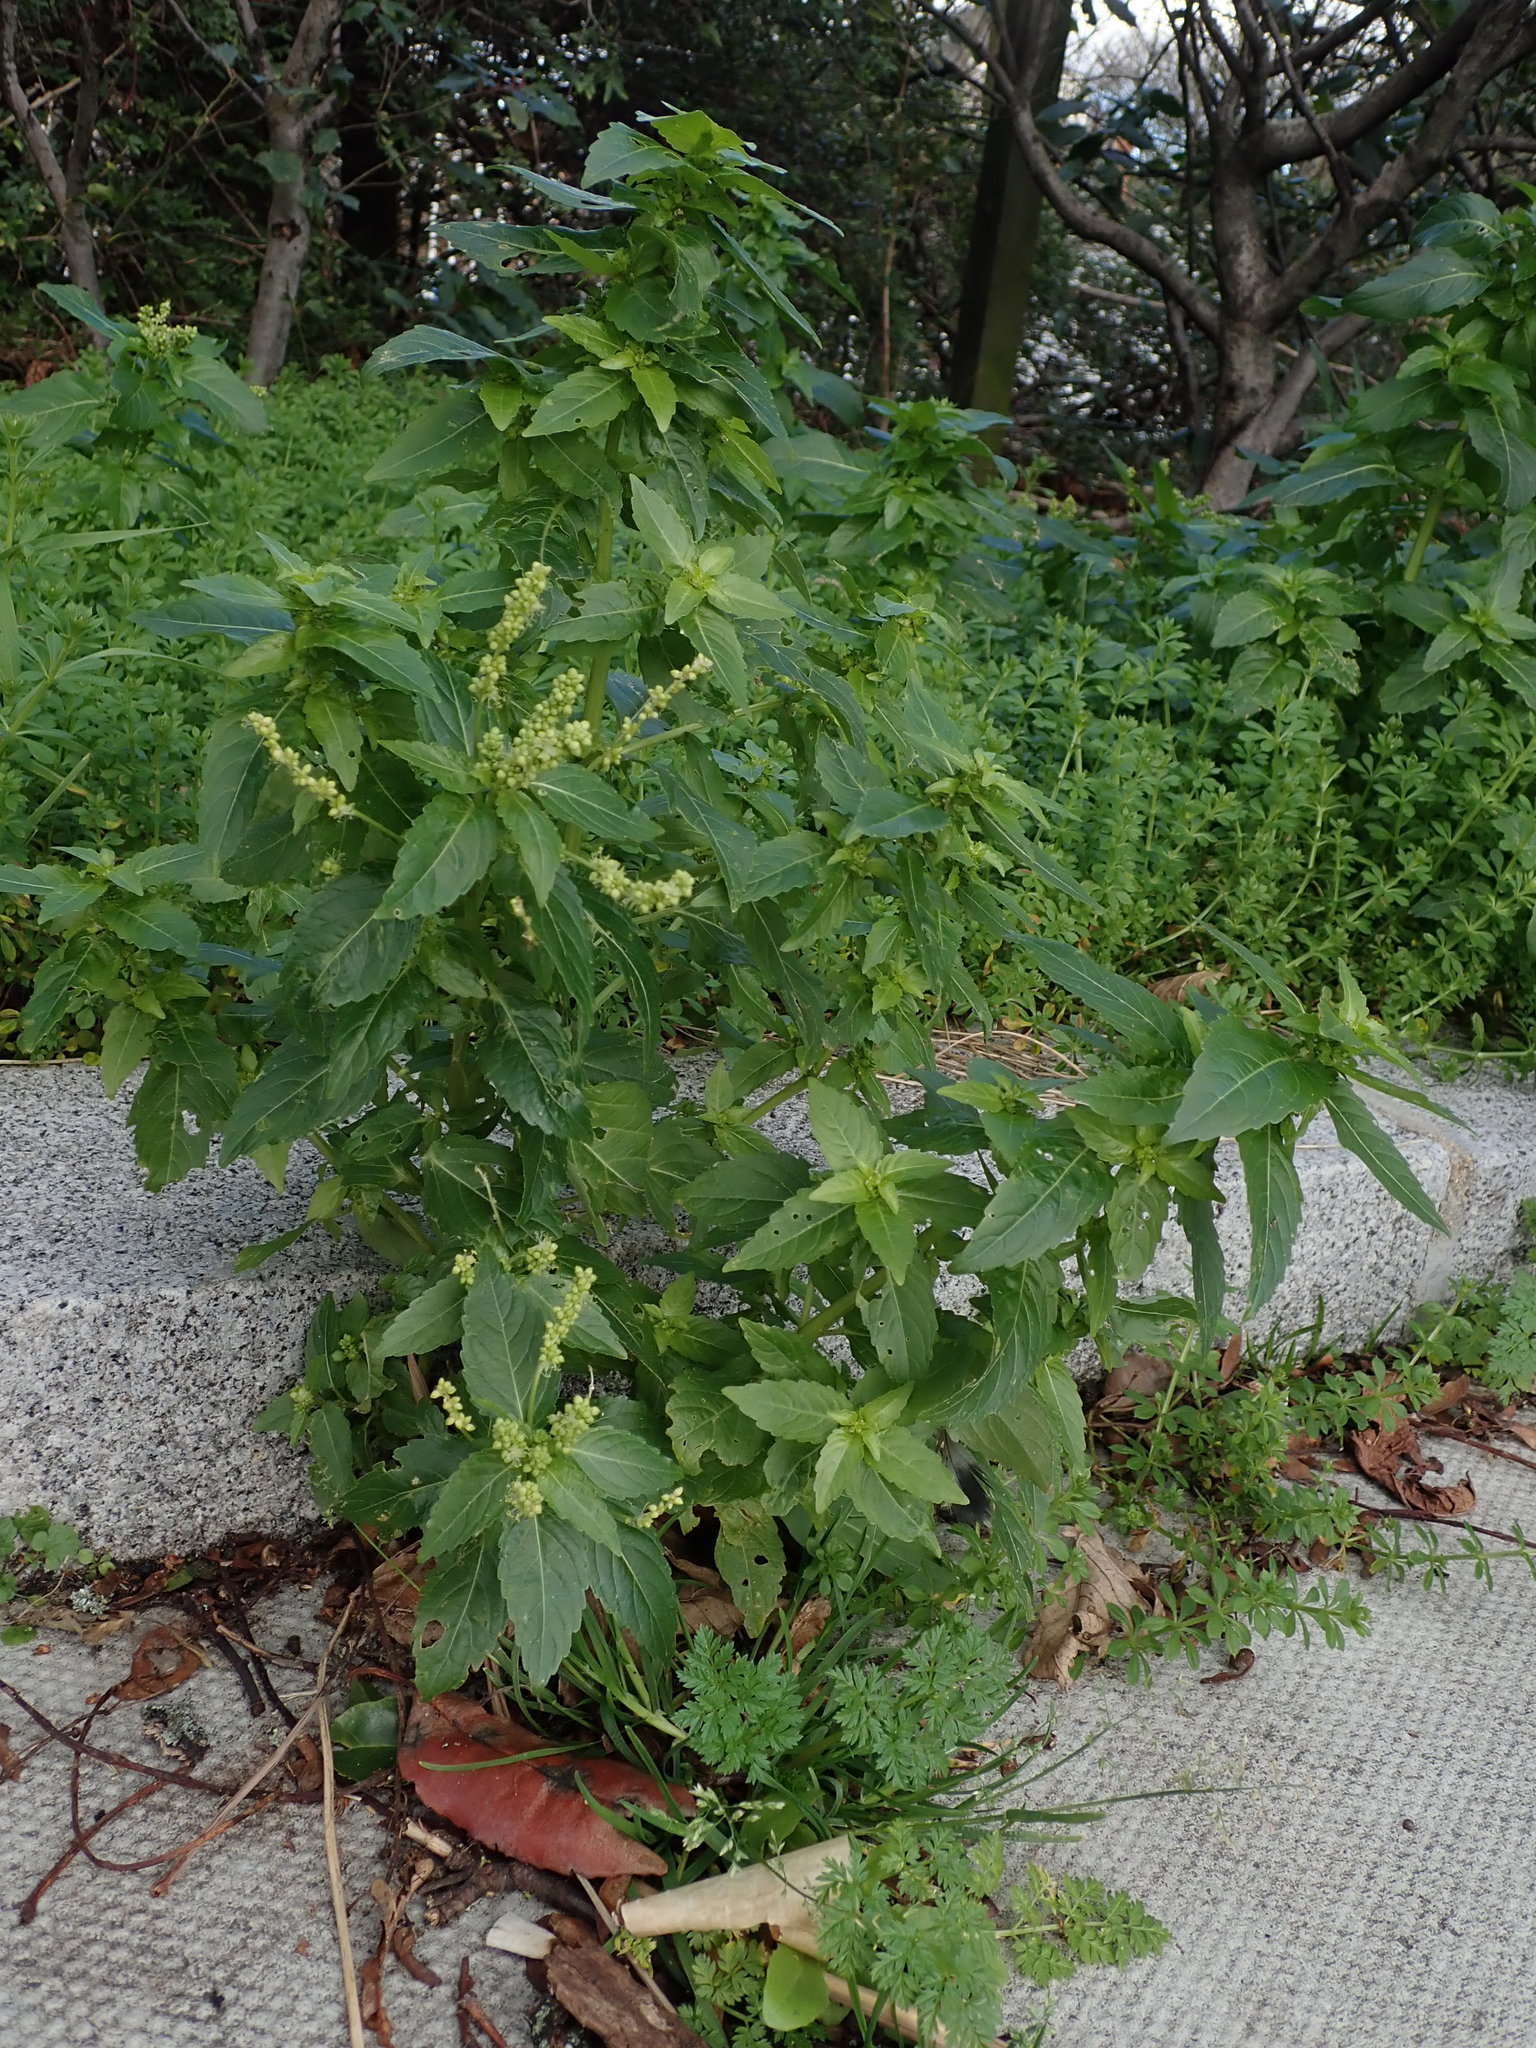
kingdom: Plantae
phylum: Tracheophyta
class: Magnoliopsida
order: Malpighiales
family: Euphorbiaceae
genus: Mercurialis
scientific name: Mercurialis annua
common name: Annual mercury
